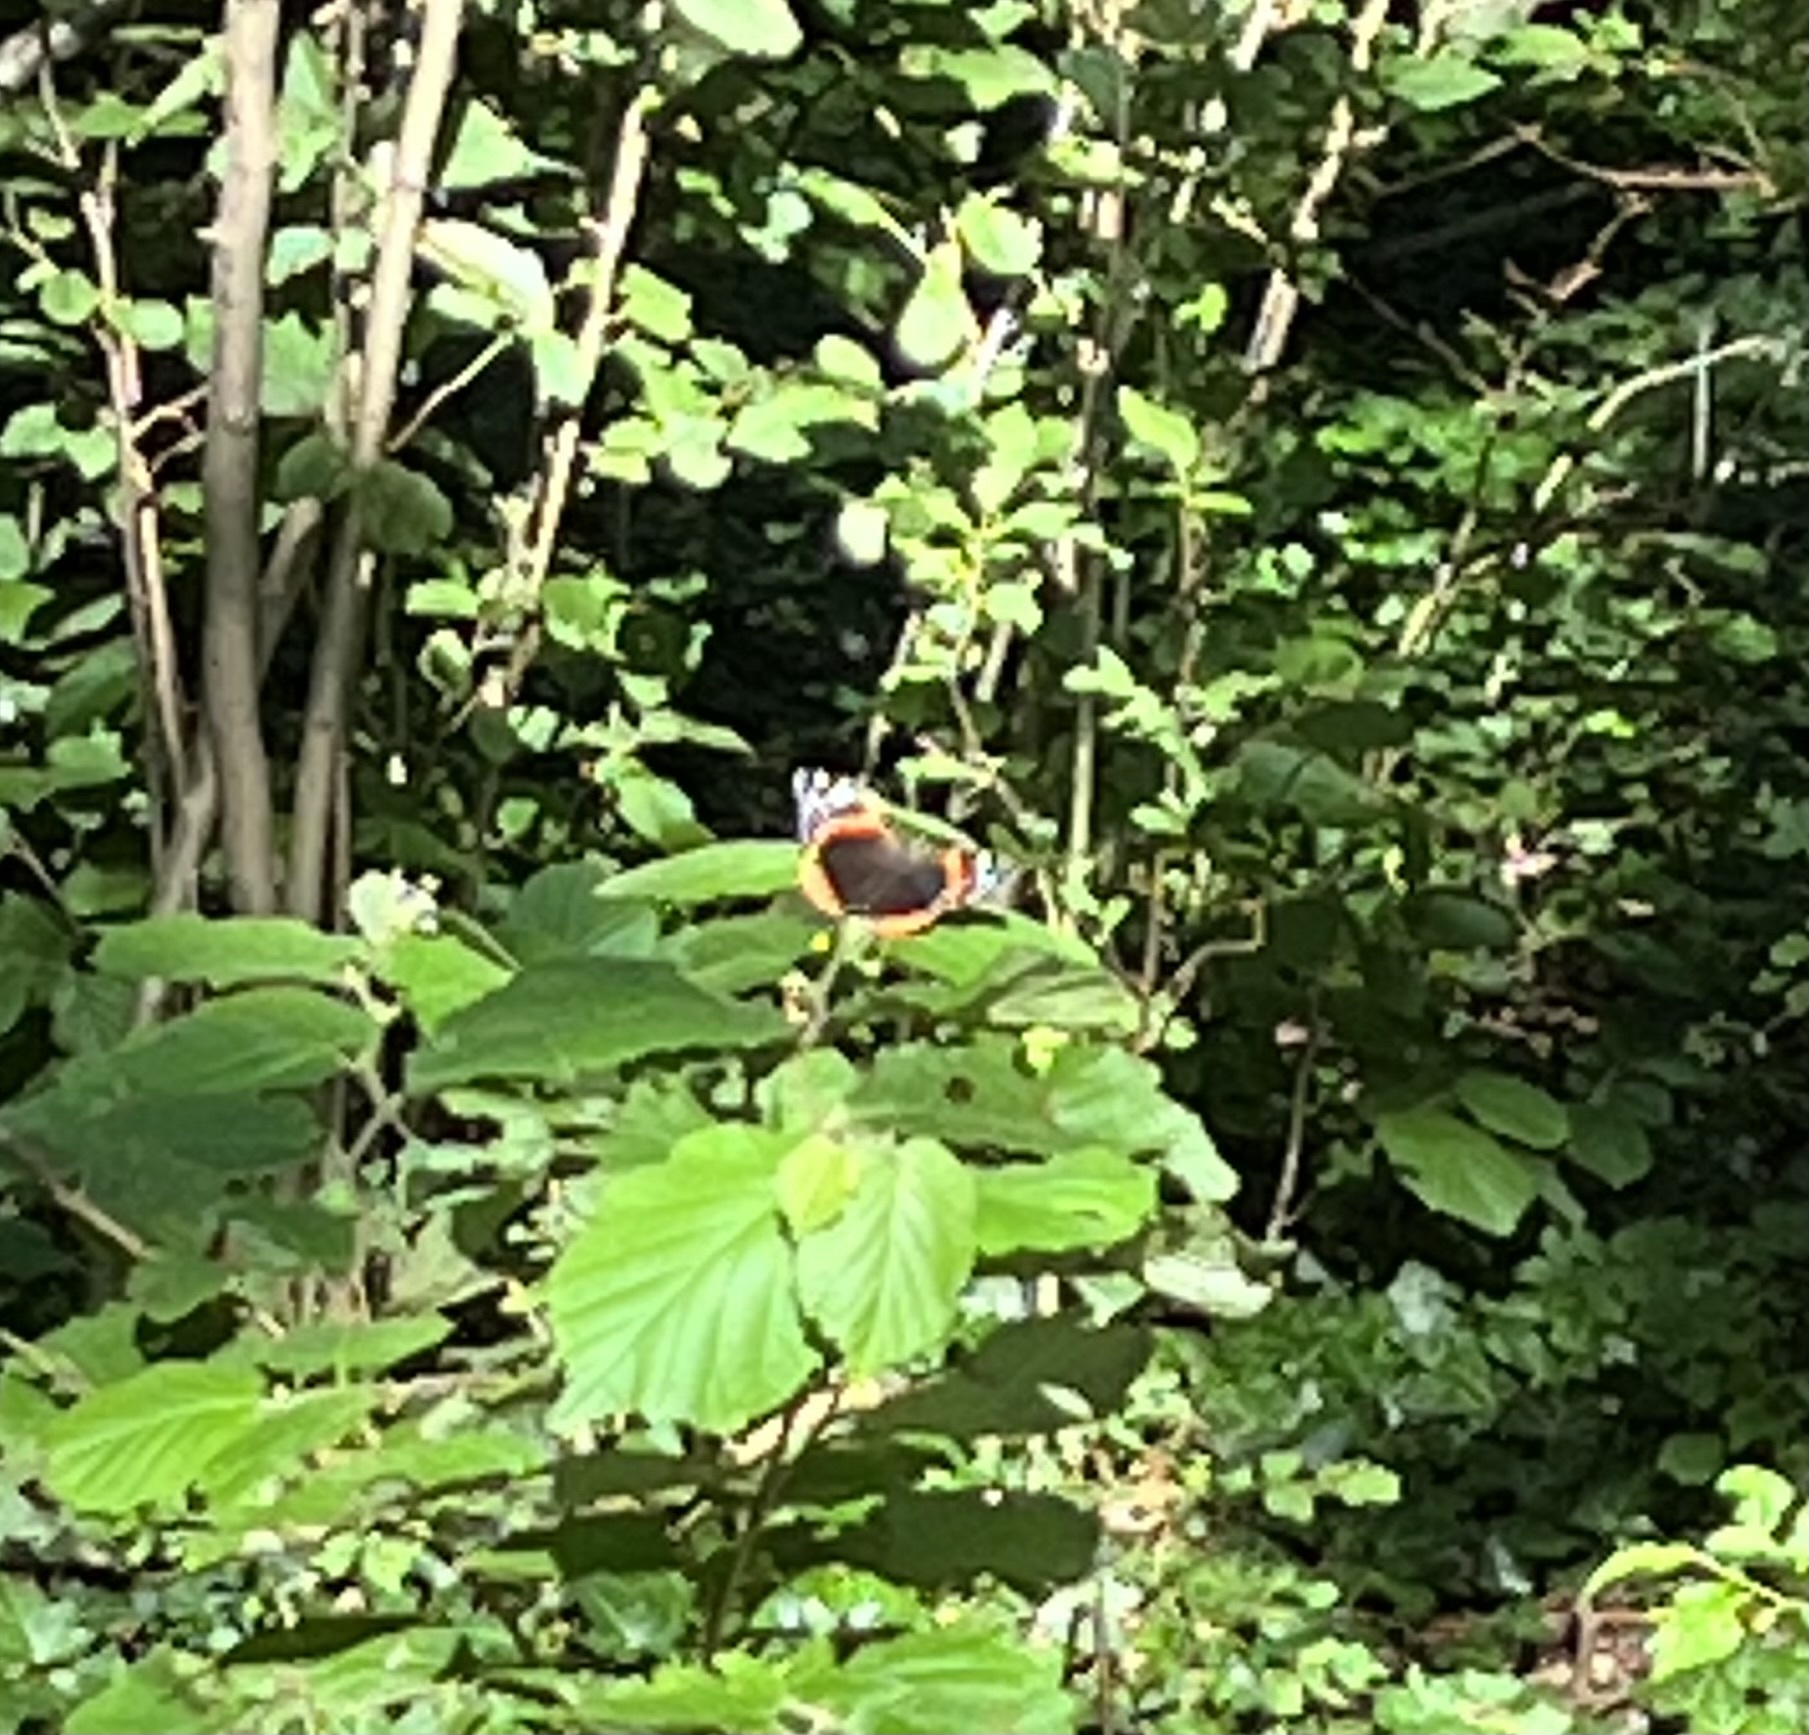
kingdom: Animalia
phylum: Arthropoda
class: Insecta
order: Lepidoptera
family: Nymphalidae
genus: Vanessa
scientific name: Vanessa atalanta
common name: Red admiral
